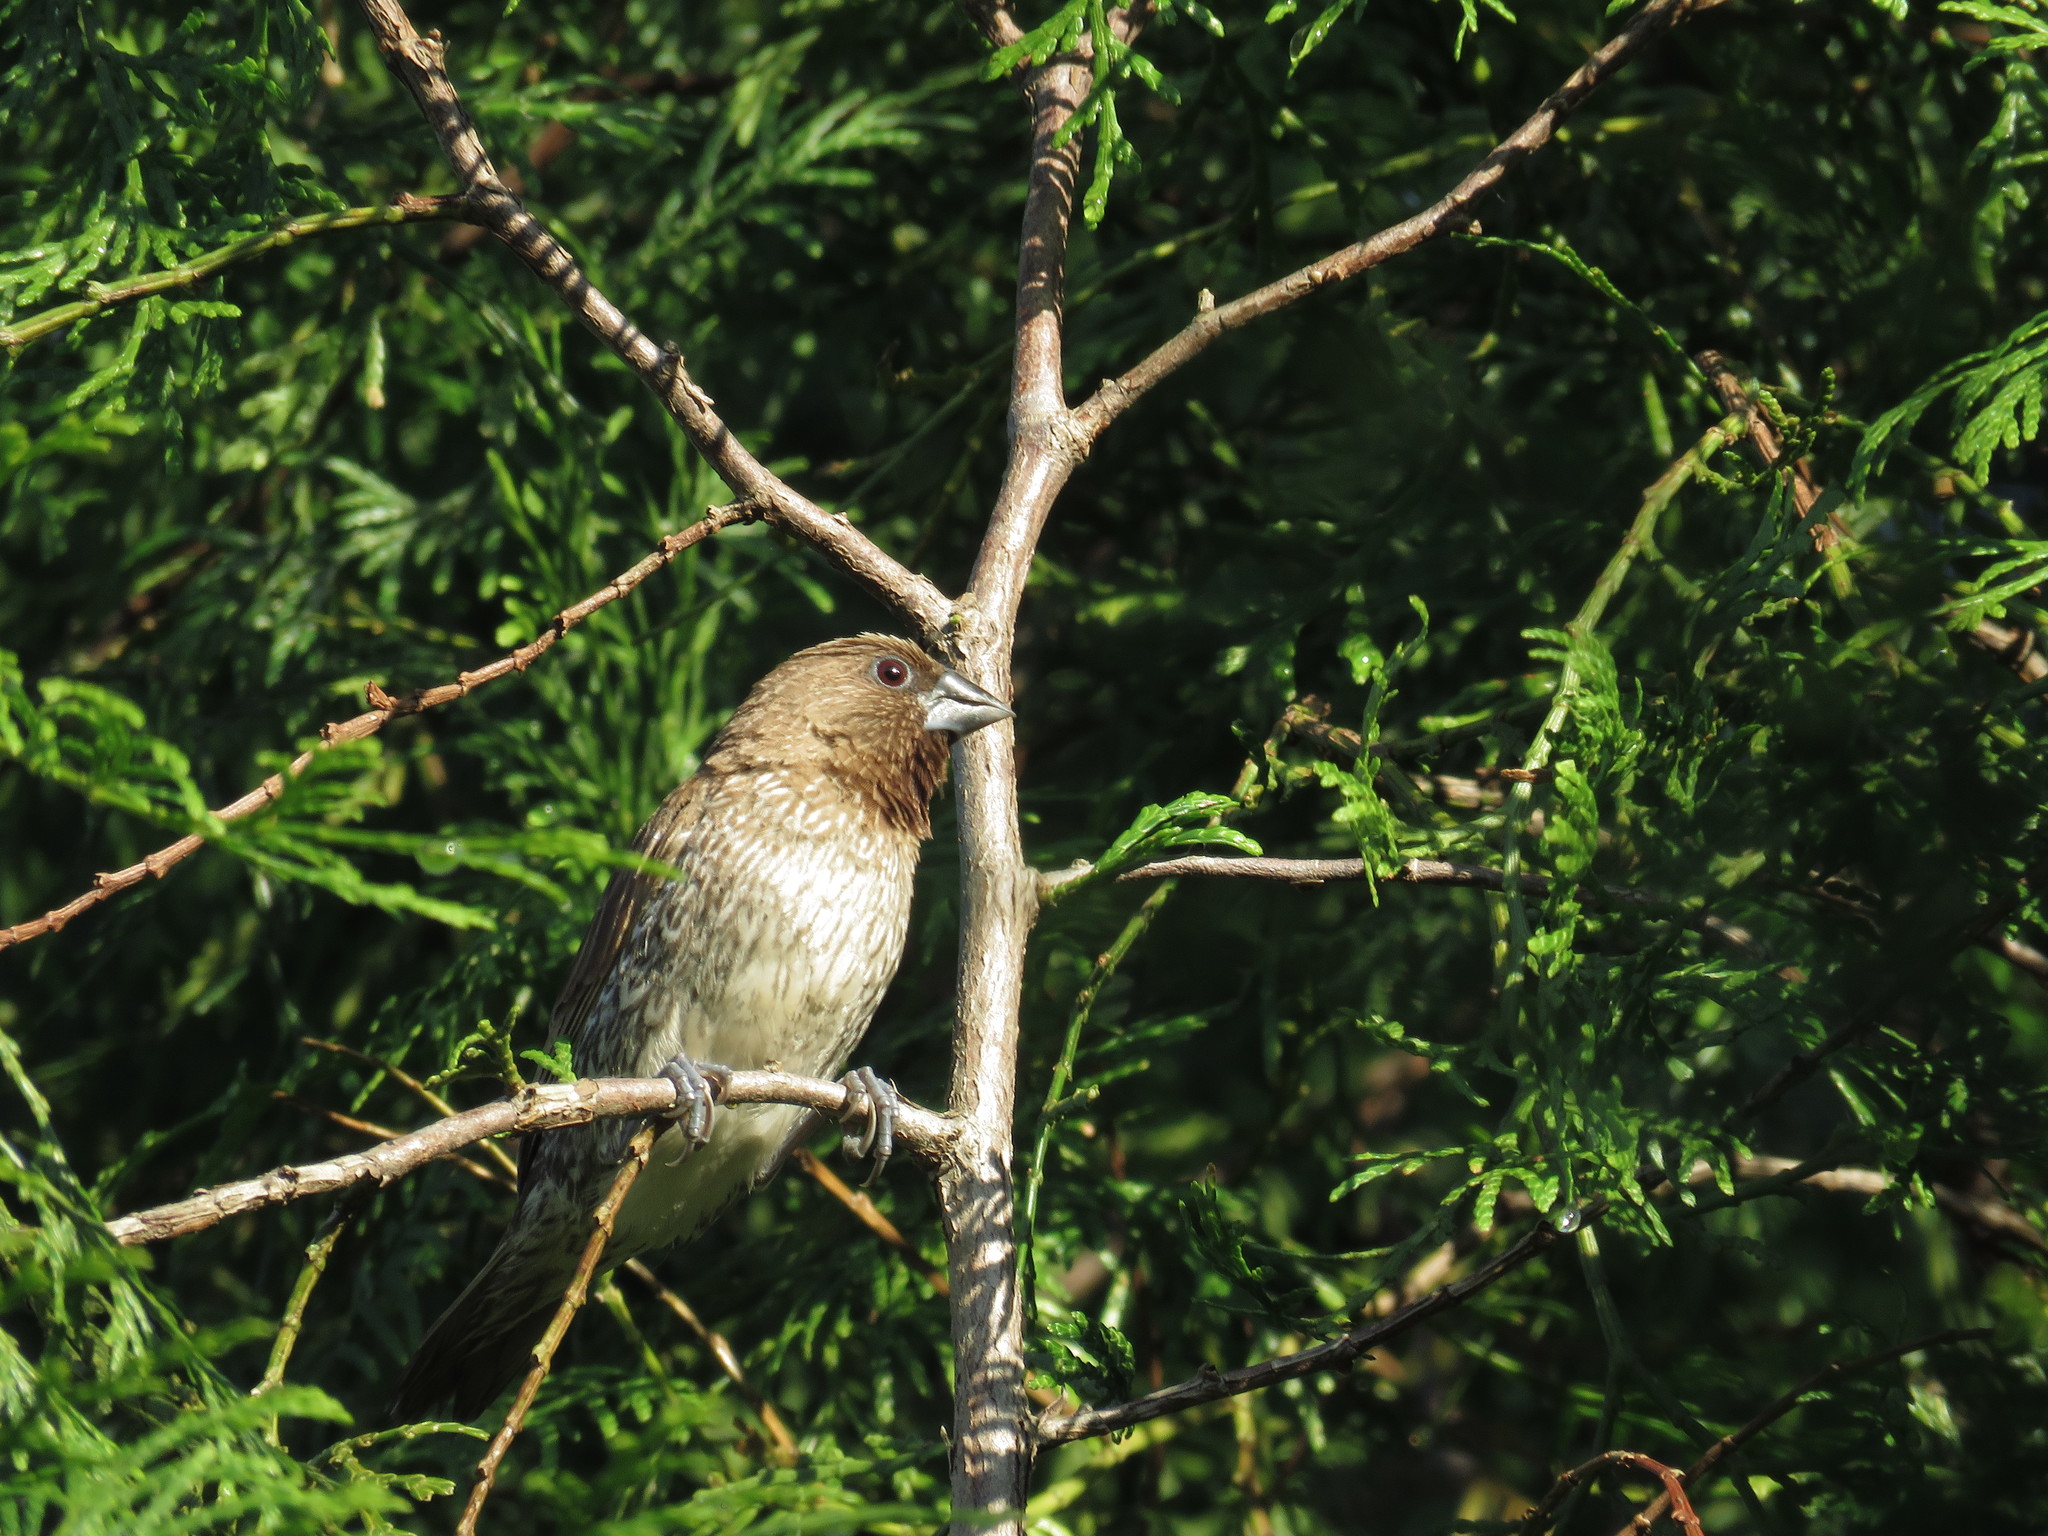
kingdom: Animalia
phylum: Chordata
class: Aves
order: Passeriformes
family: Estrildidae
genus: Lonchura
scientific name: Lonchura punctulata
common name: Scaly-breasted munia
